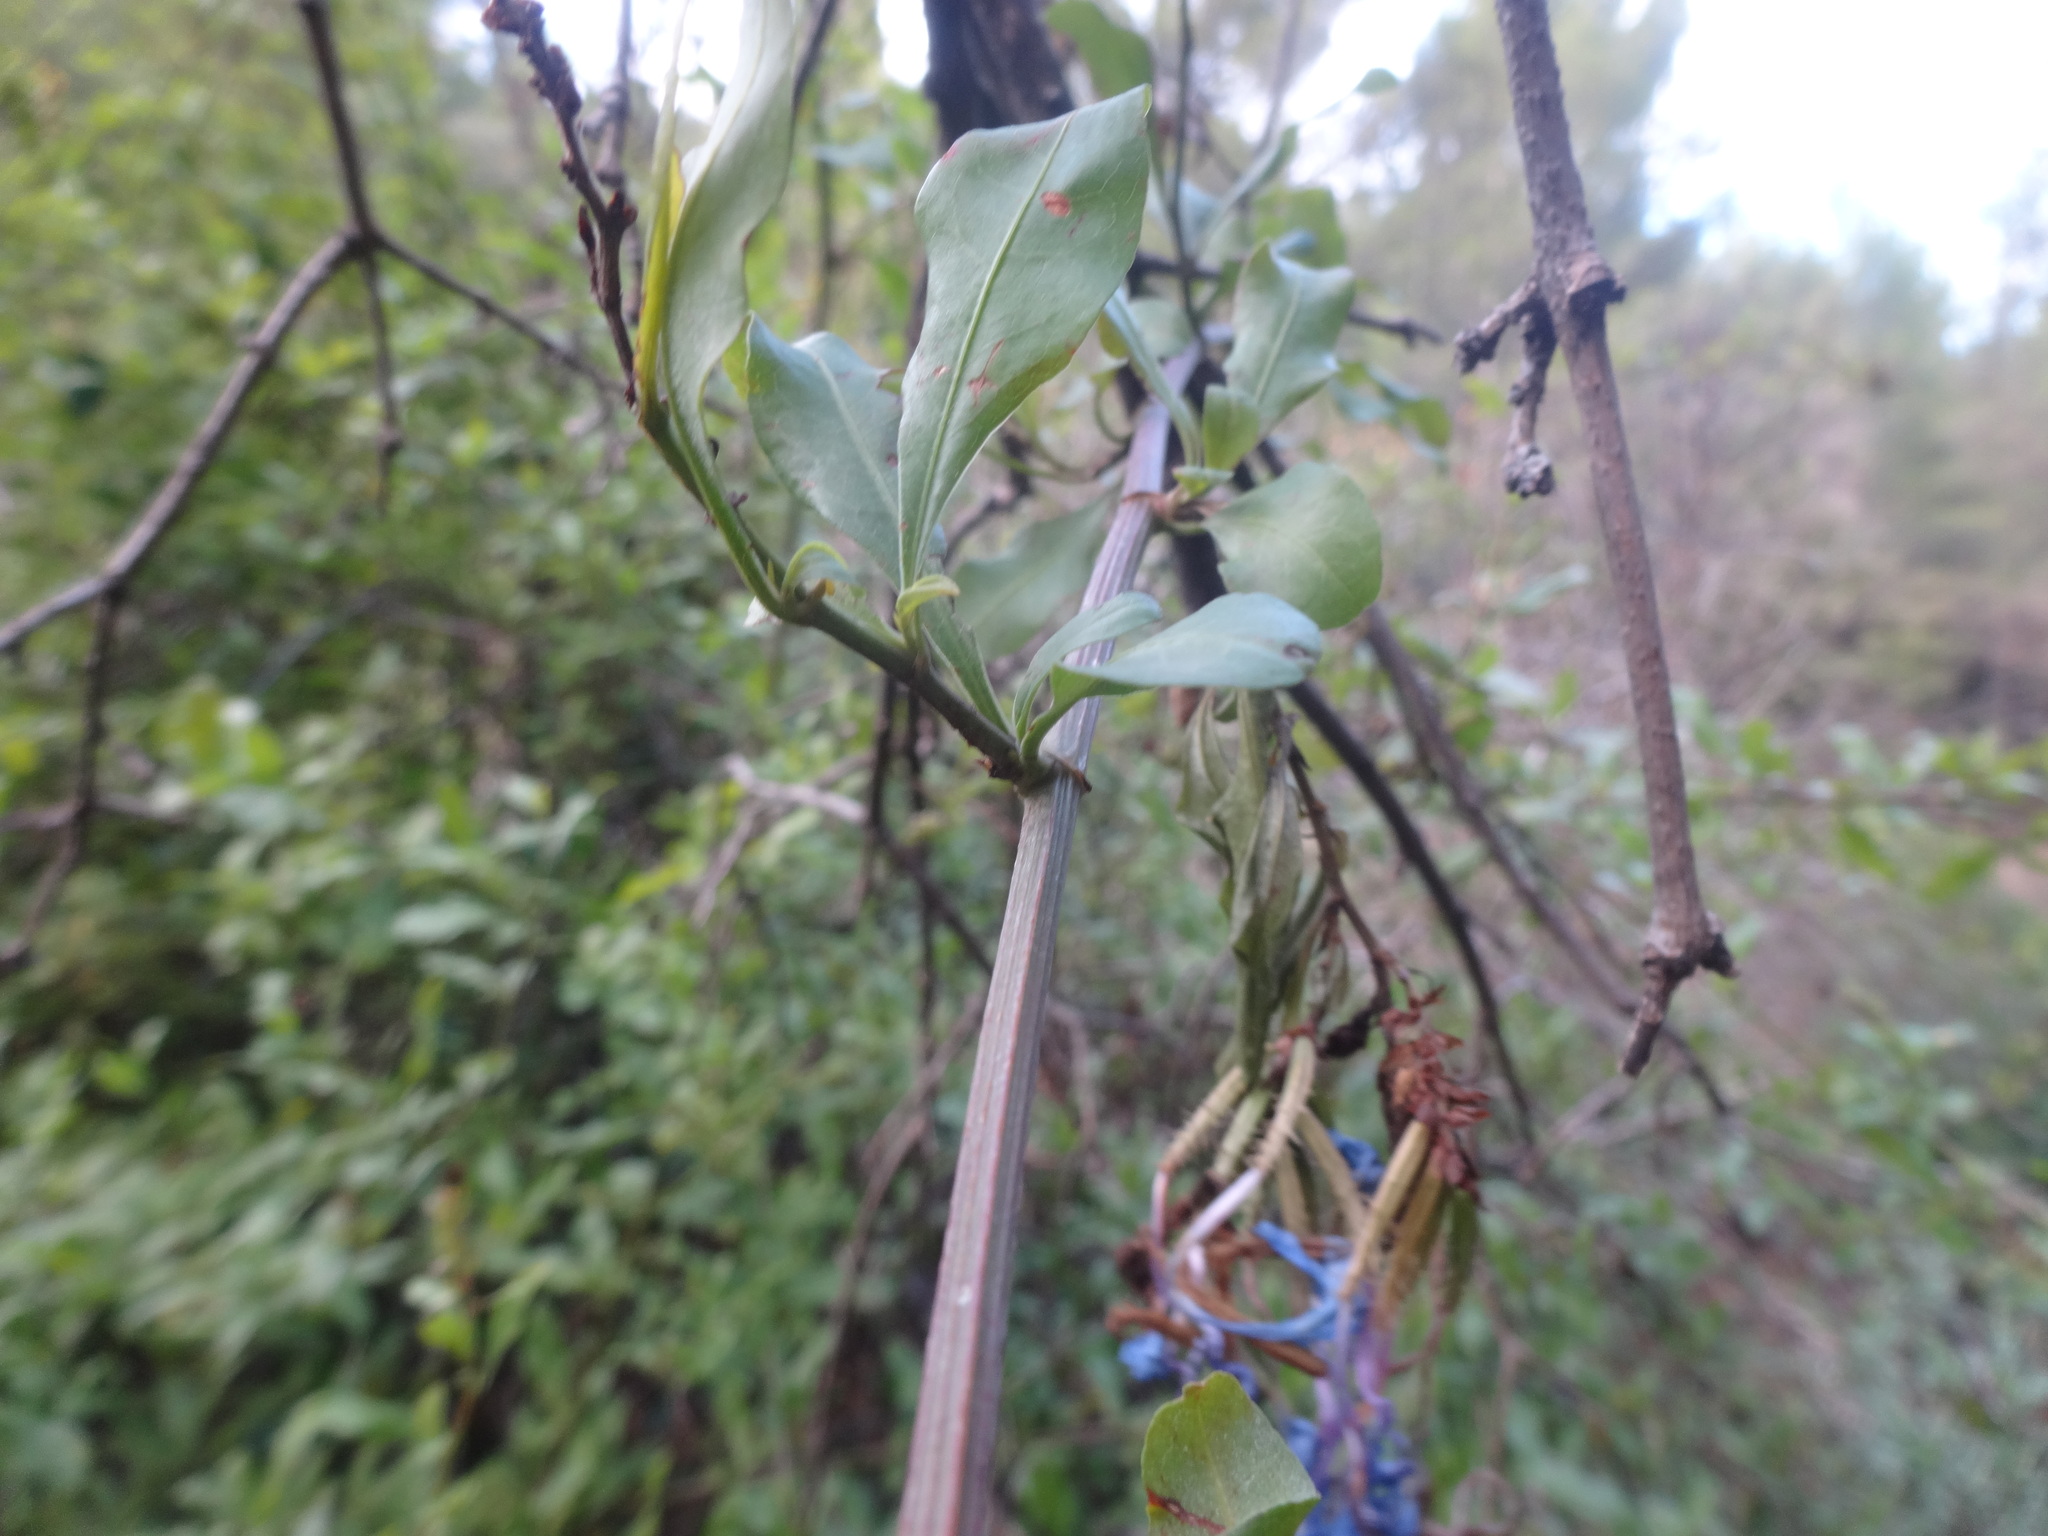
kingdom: Plantae
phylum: Tracheophyta
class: Magnoliopsida
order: Caryophyllales
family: Plumbaginaceae
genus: Plumbago
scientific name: Plumbago auriculata
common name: Cape leadwort
